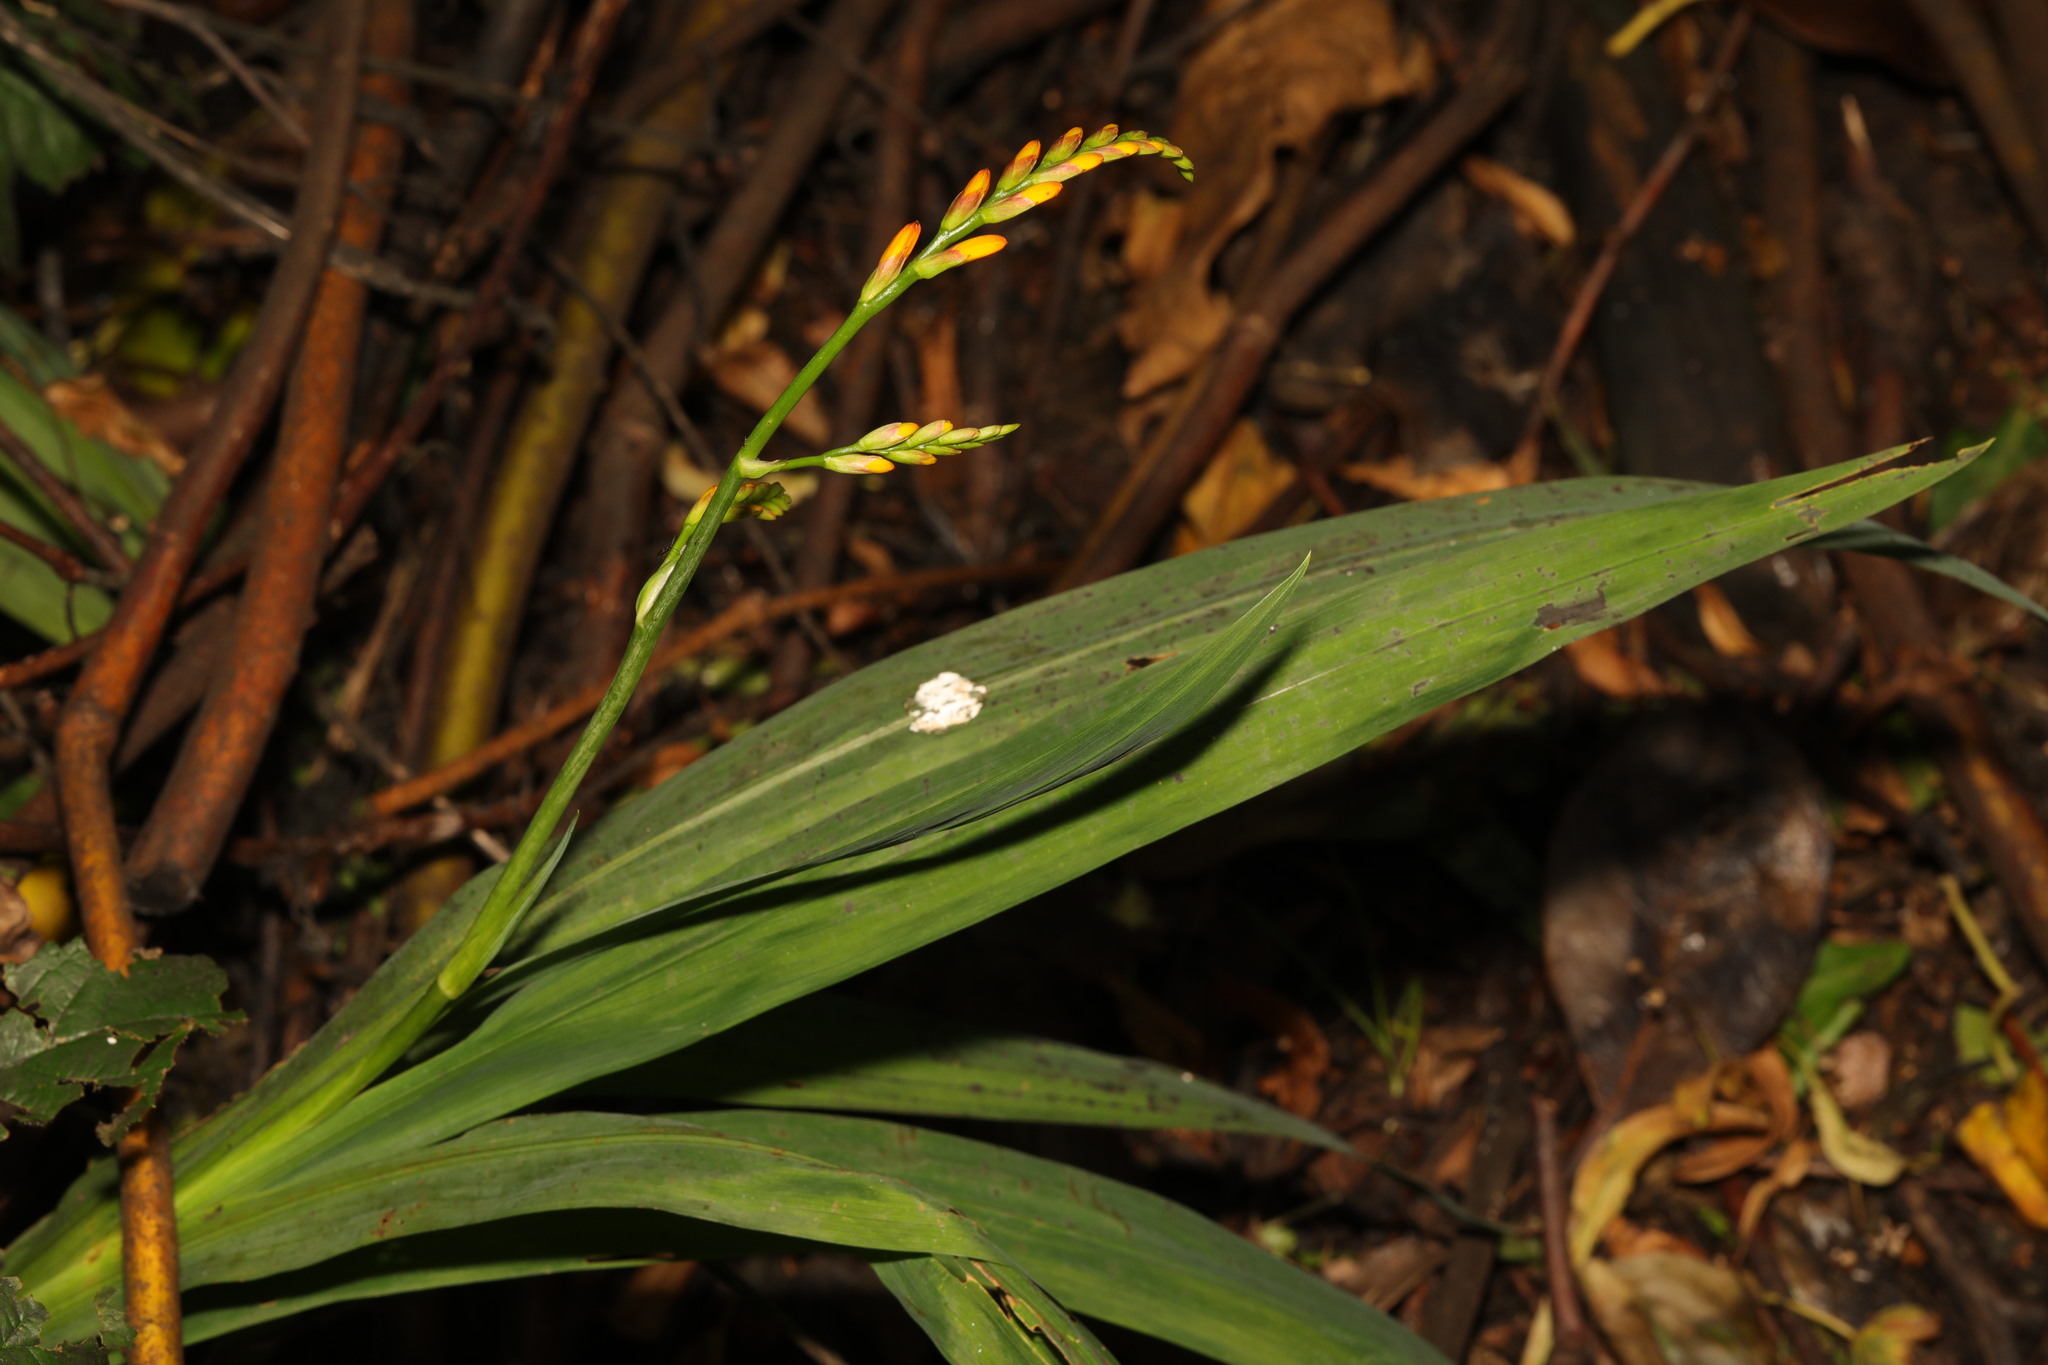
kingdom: Plantae
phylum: Tracheophyta
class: Liliopsida
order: Asparagales
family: Iridaceae
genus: Crocosmia
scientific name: Crocosmia crocosmiiflora
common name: Montbretia
